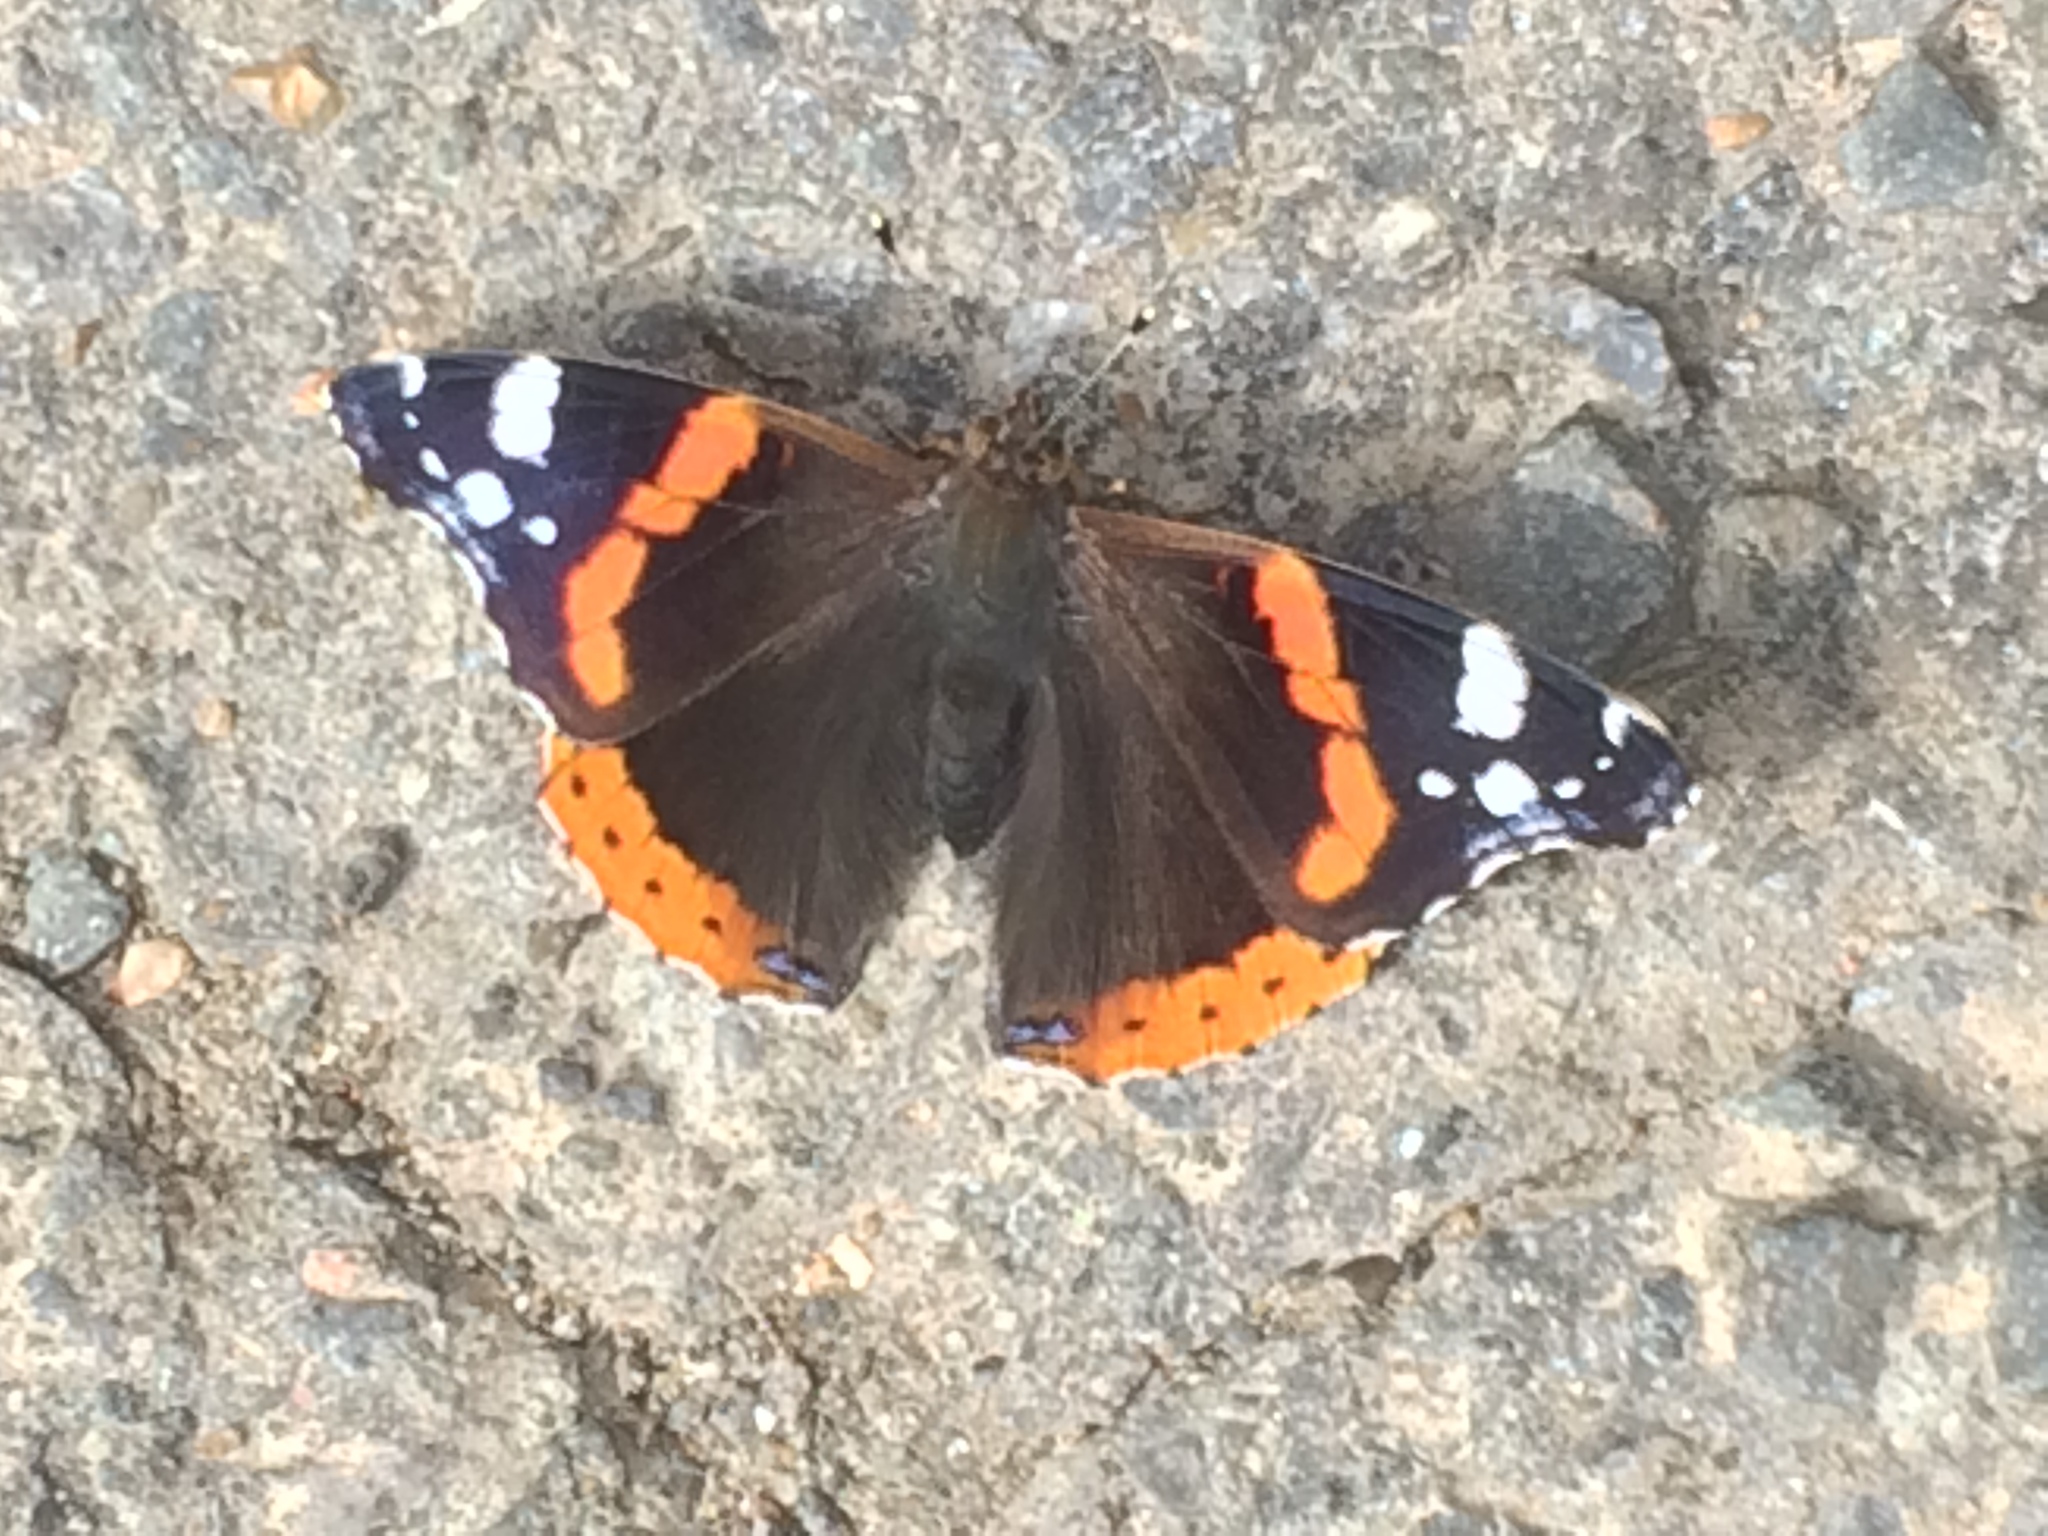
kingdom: Animalia
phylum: Arthropoda
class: Insecta
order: Lepidoptera
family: Nymphalidae
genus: Vanessa
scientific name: Vanessa atalanta
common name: Red admiral
